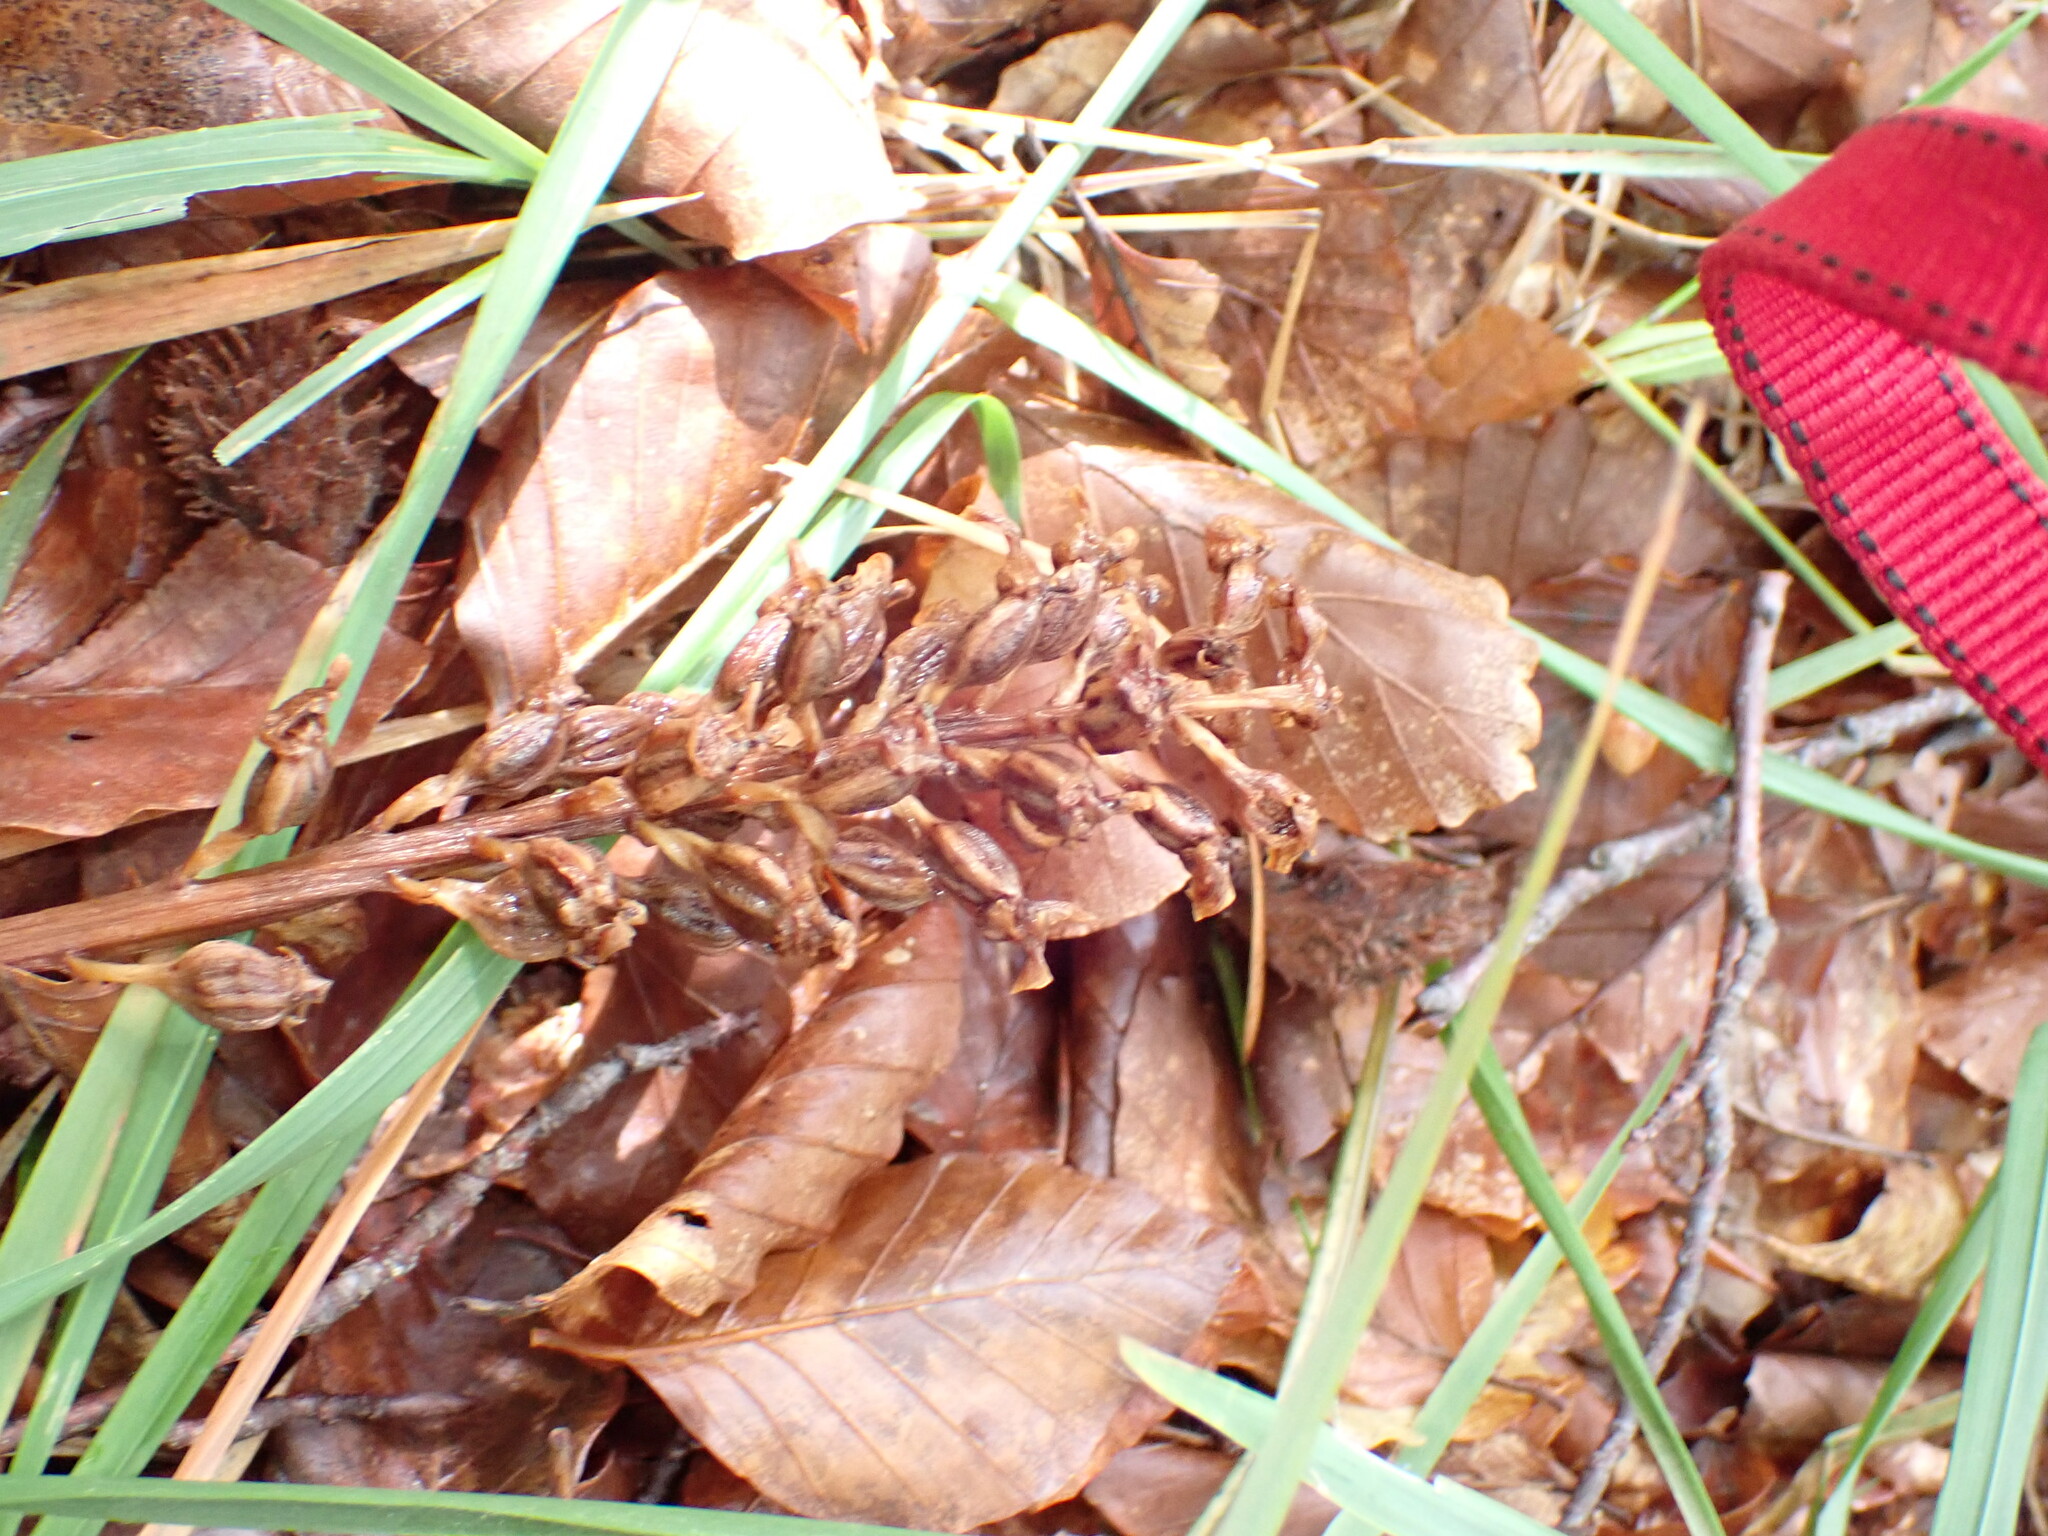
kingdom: Plantae
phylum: Tracheophyta
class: Liliopsida
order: Asparagales
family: Orchidaceae
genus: Neottia
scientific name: Neottia nidus-avis
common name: Bird's-nest orchid
